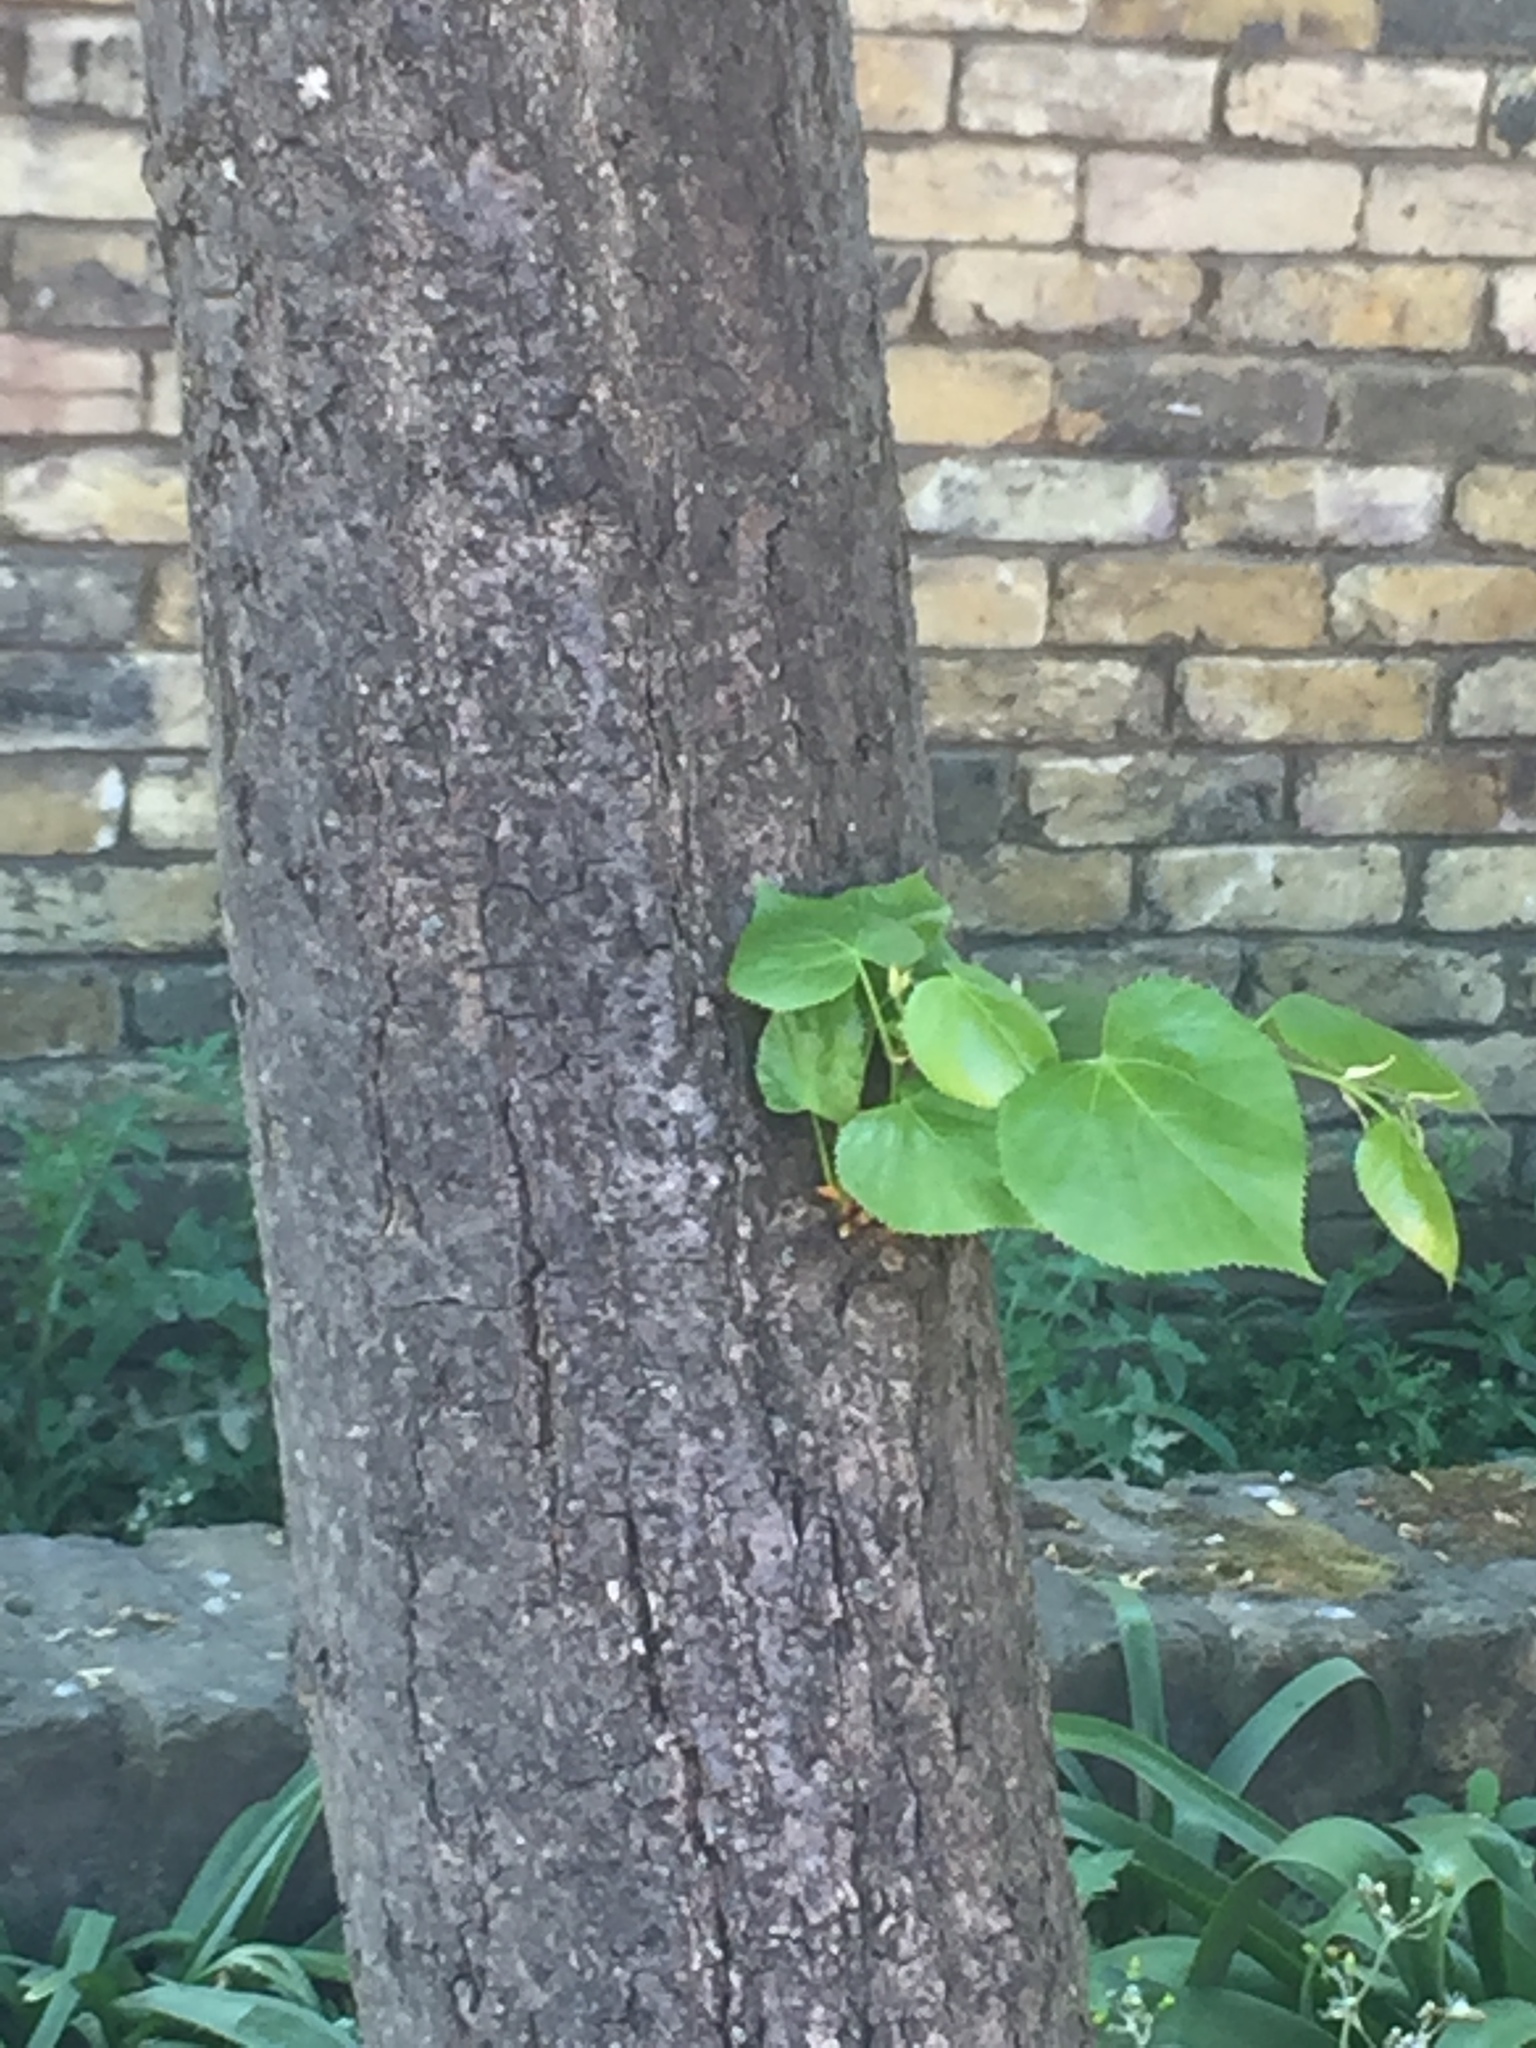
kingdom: Plantae
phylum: Tracheophyta
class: Magnoliopsida
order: Malvales
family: Malvaceae
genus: Tilia
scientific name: Tilia cordata
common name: Small-leaved lime
